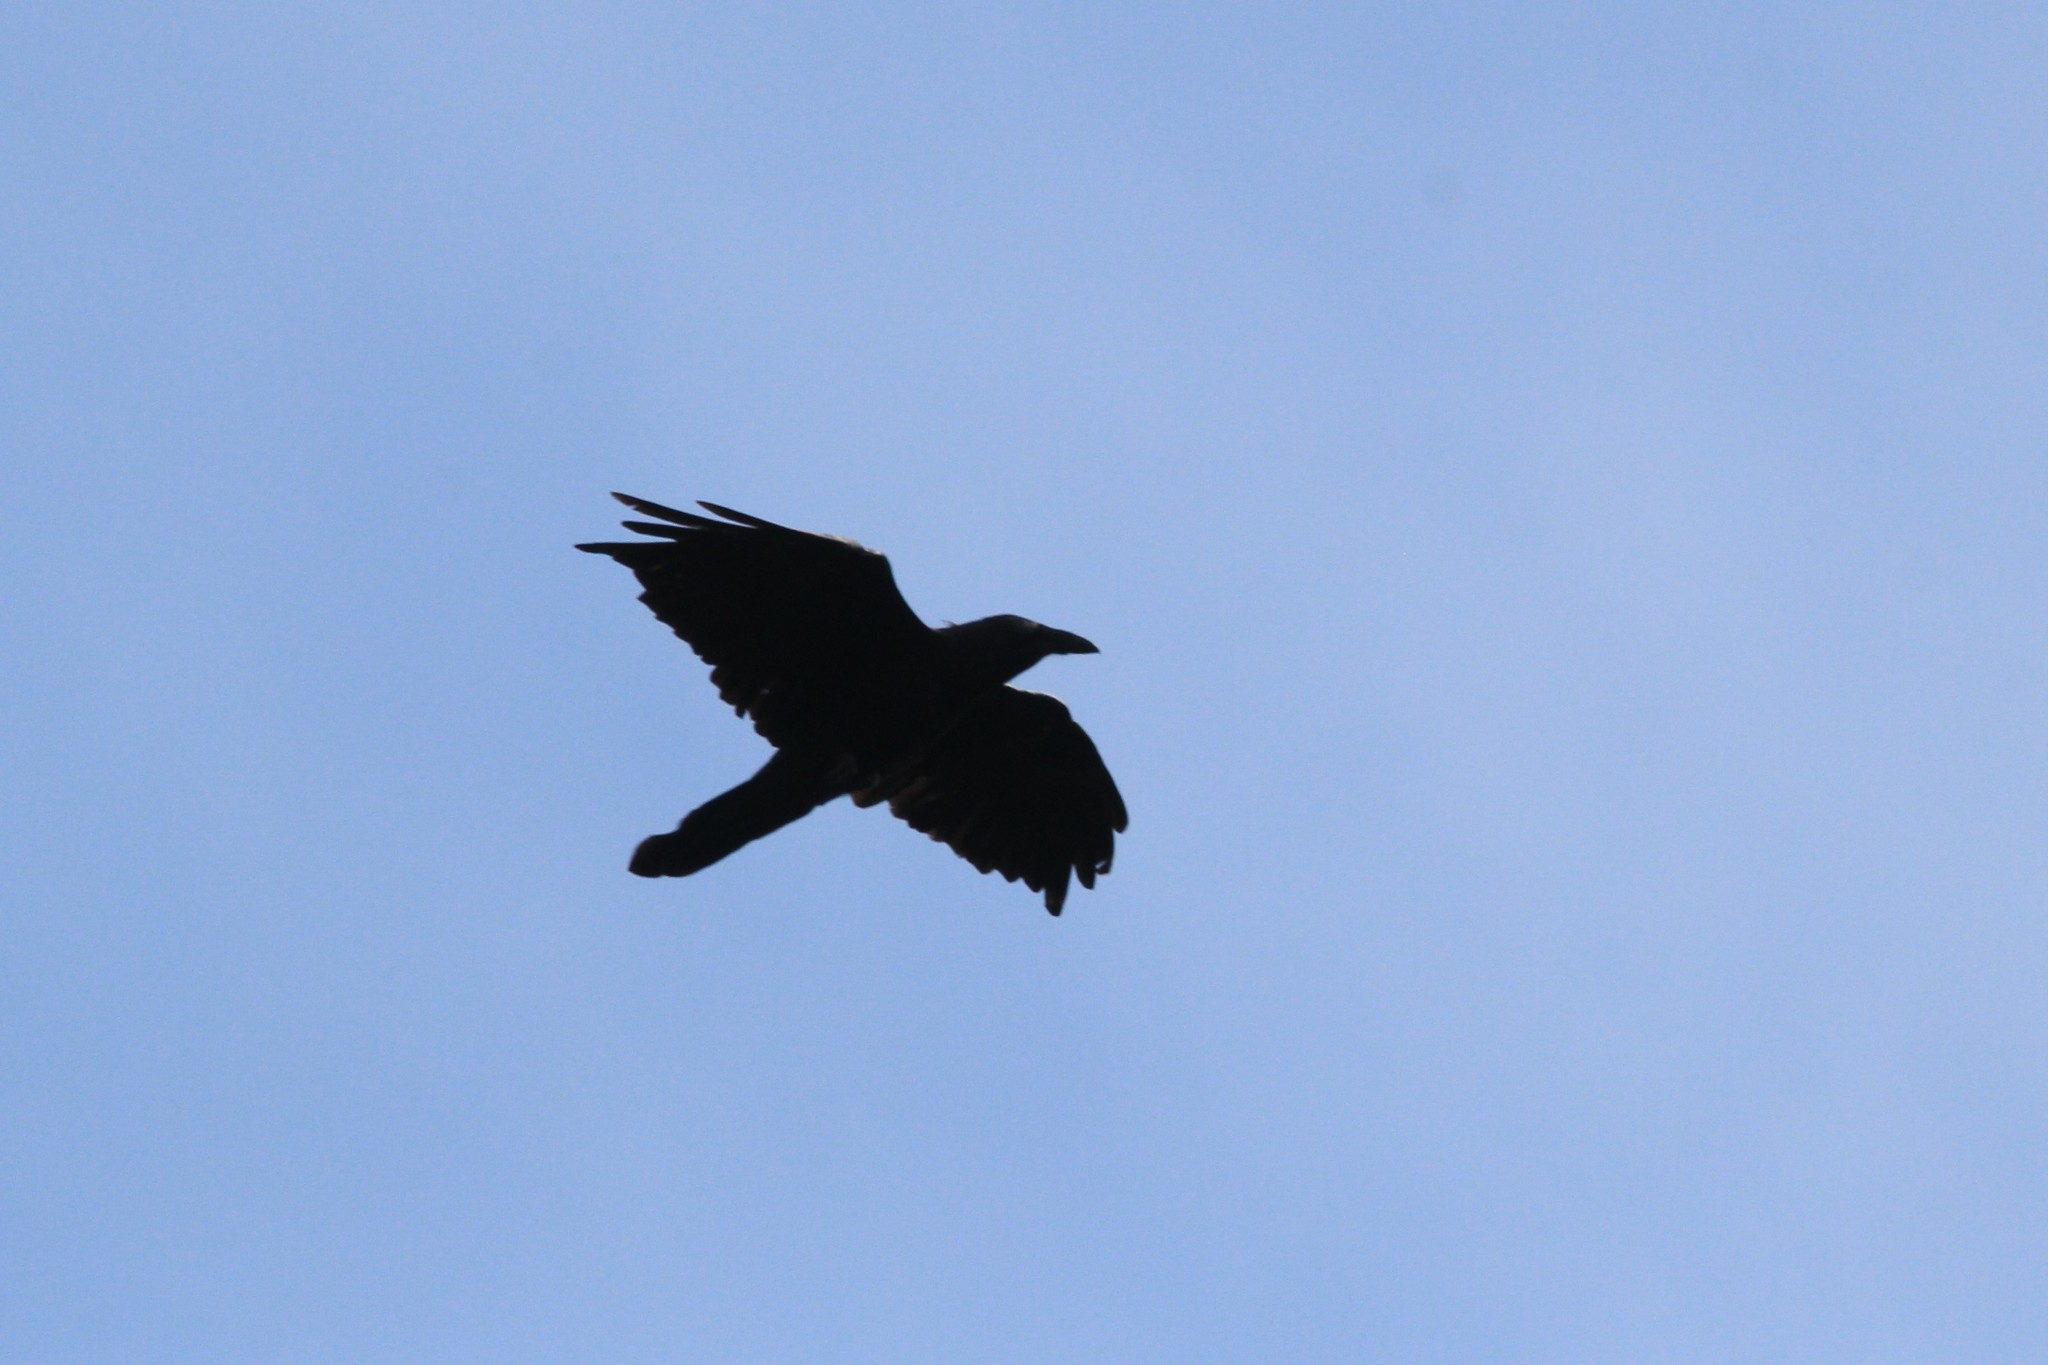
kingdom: Animalia
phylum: Chordata
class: Aves
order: Passeriformes
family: Corvidae
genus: Corvus
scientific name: Corvus corax
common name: Common raven
